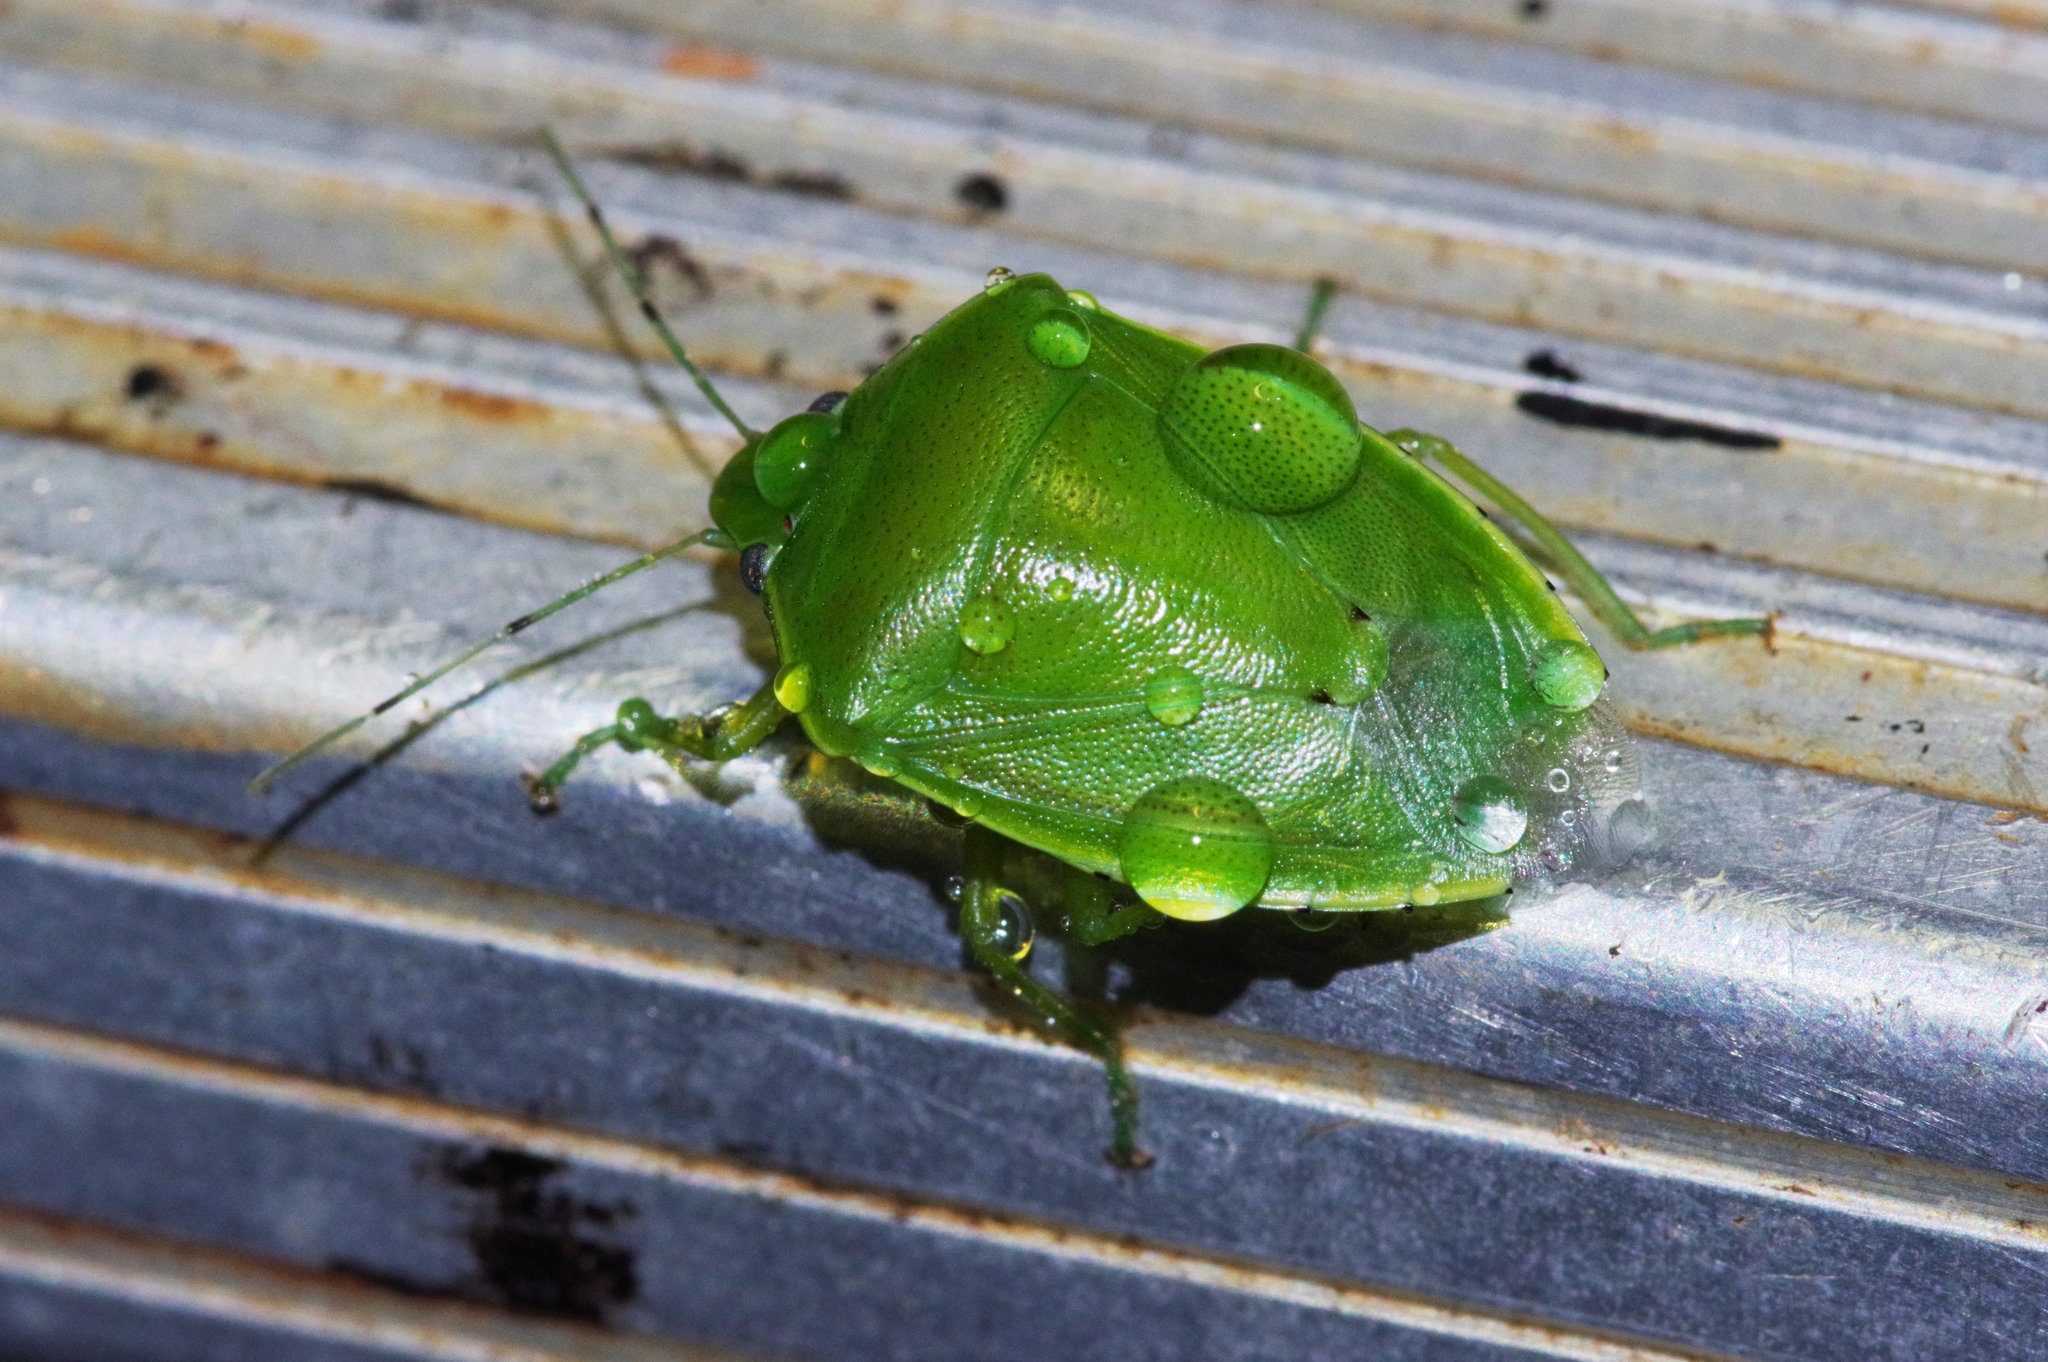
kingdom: Animalia
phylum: Arthropoda
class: Insecta
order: Hemiptera
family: Pentatomidae
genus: Glaucias
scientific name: Glaucias subpunctatus
